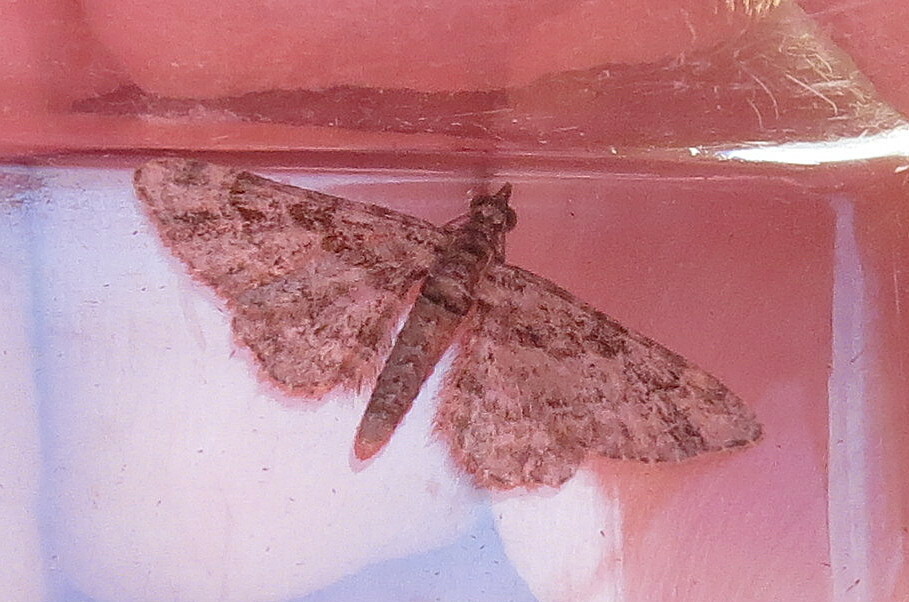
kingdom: Animalia
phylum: Arthropoda
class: Insecta
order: Lepidoptera
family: Geometridae
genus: Gymnoscelis
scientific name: Gymnoscelis rufifasciata
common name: Double-striped pug
